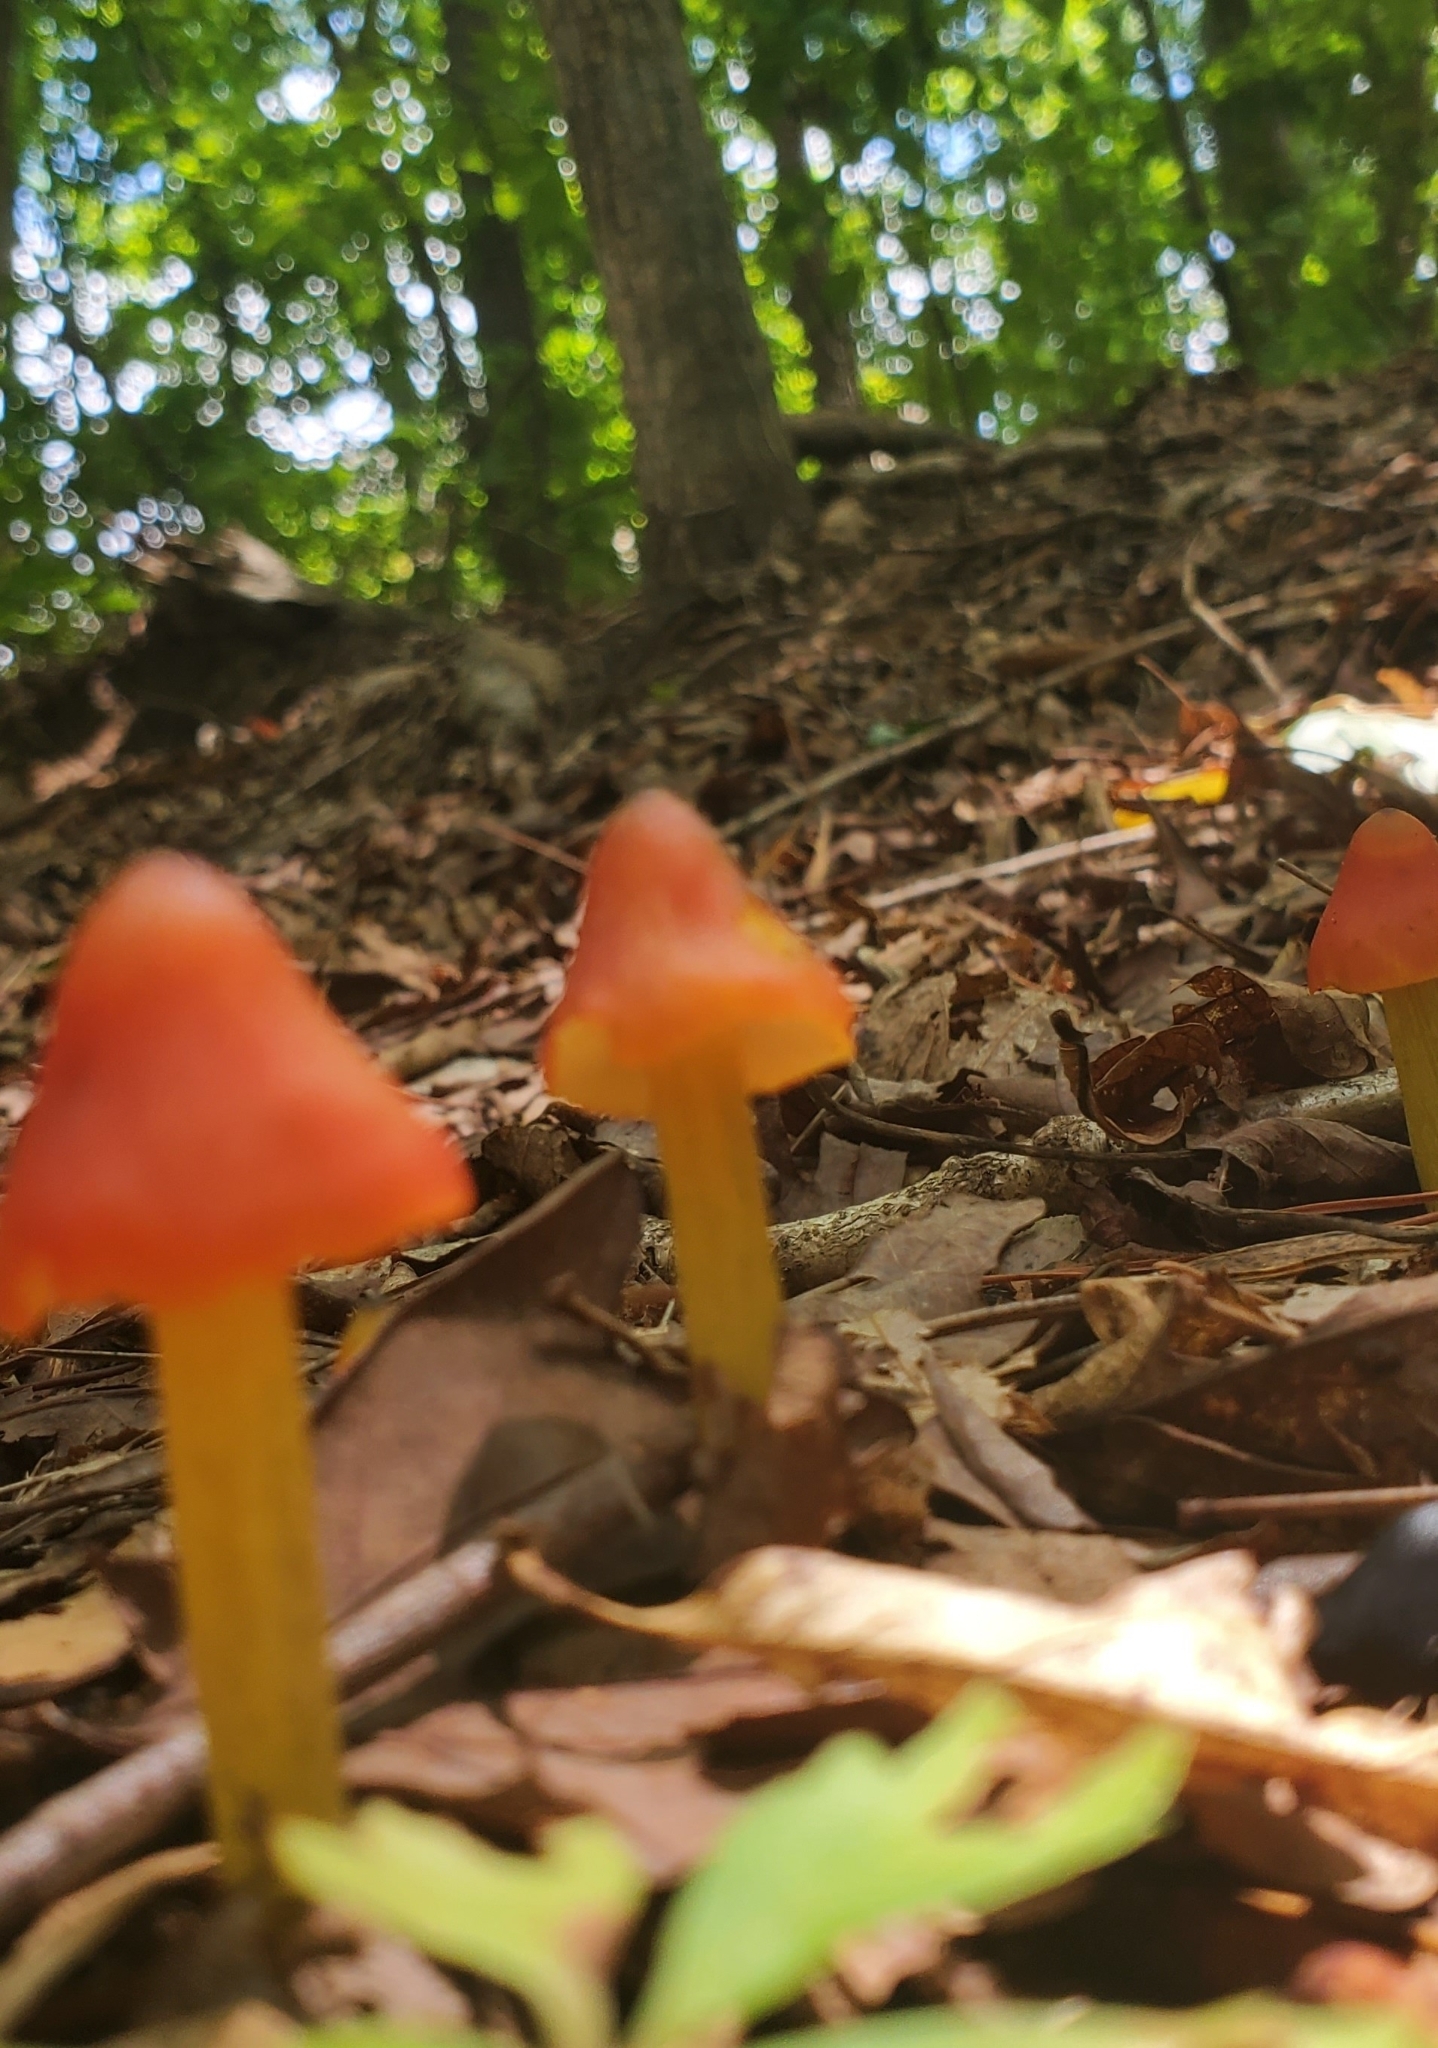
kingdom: Fungi
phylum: Basidiomycota
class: Agaricomycetes
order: Agaricales
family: Hygrophoraceae
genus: Hygrocybe
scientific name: Hygrocybe conica
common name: Blackening wax-cap
